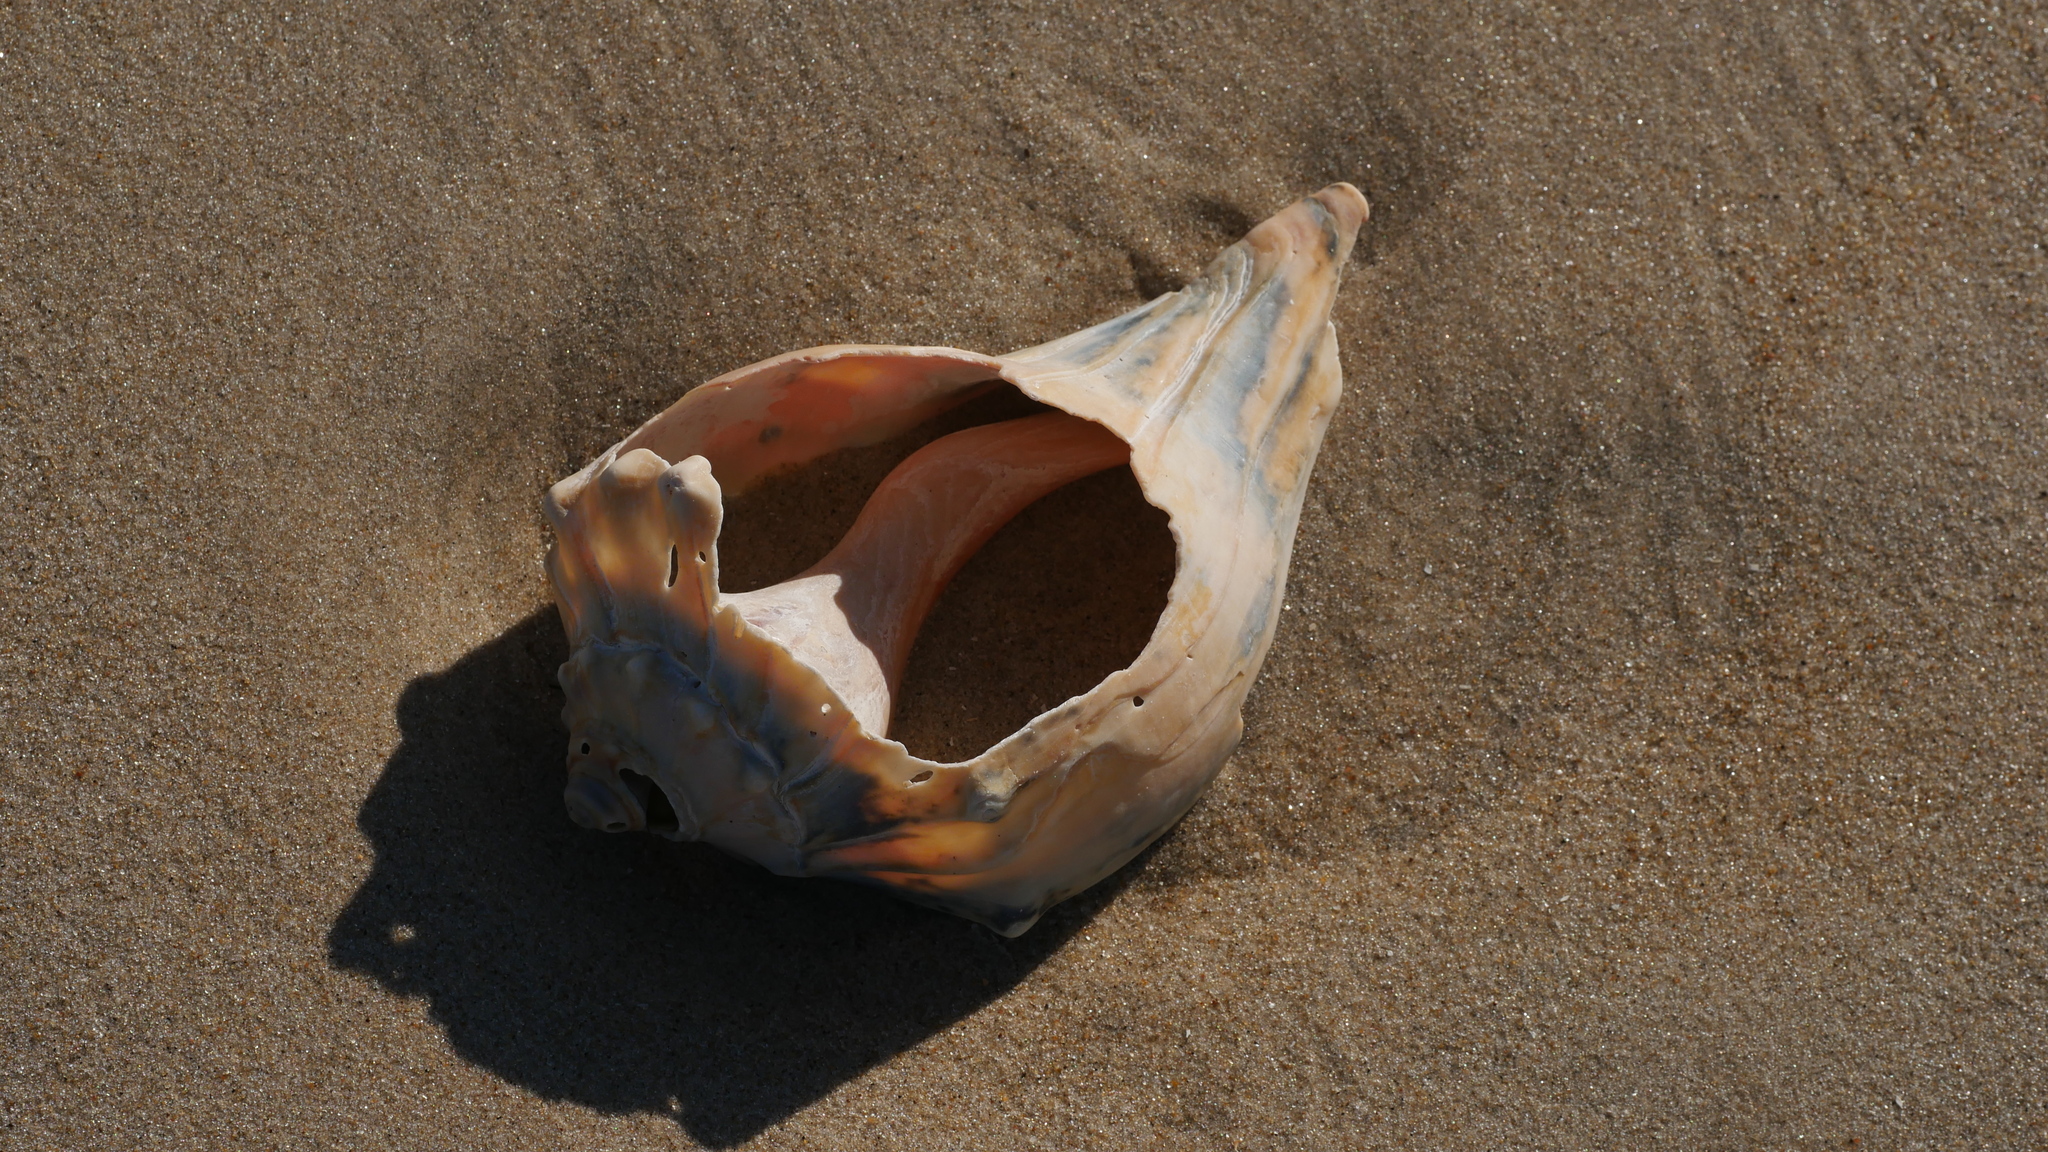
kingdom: Animalia
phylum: Mollusca
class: Gastropoda
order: Neogastropoda
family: Busyconidae
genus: Busycon
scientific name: Busycon carica
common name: Knobbed whelk
